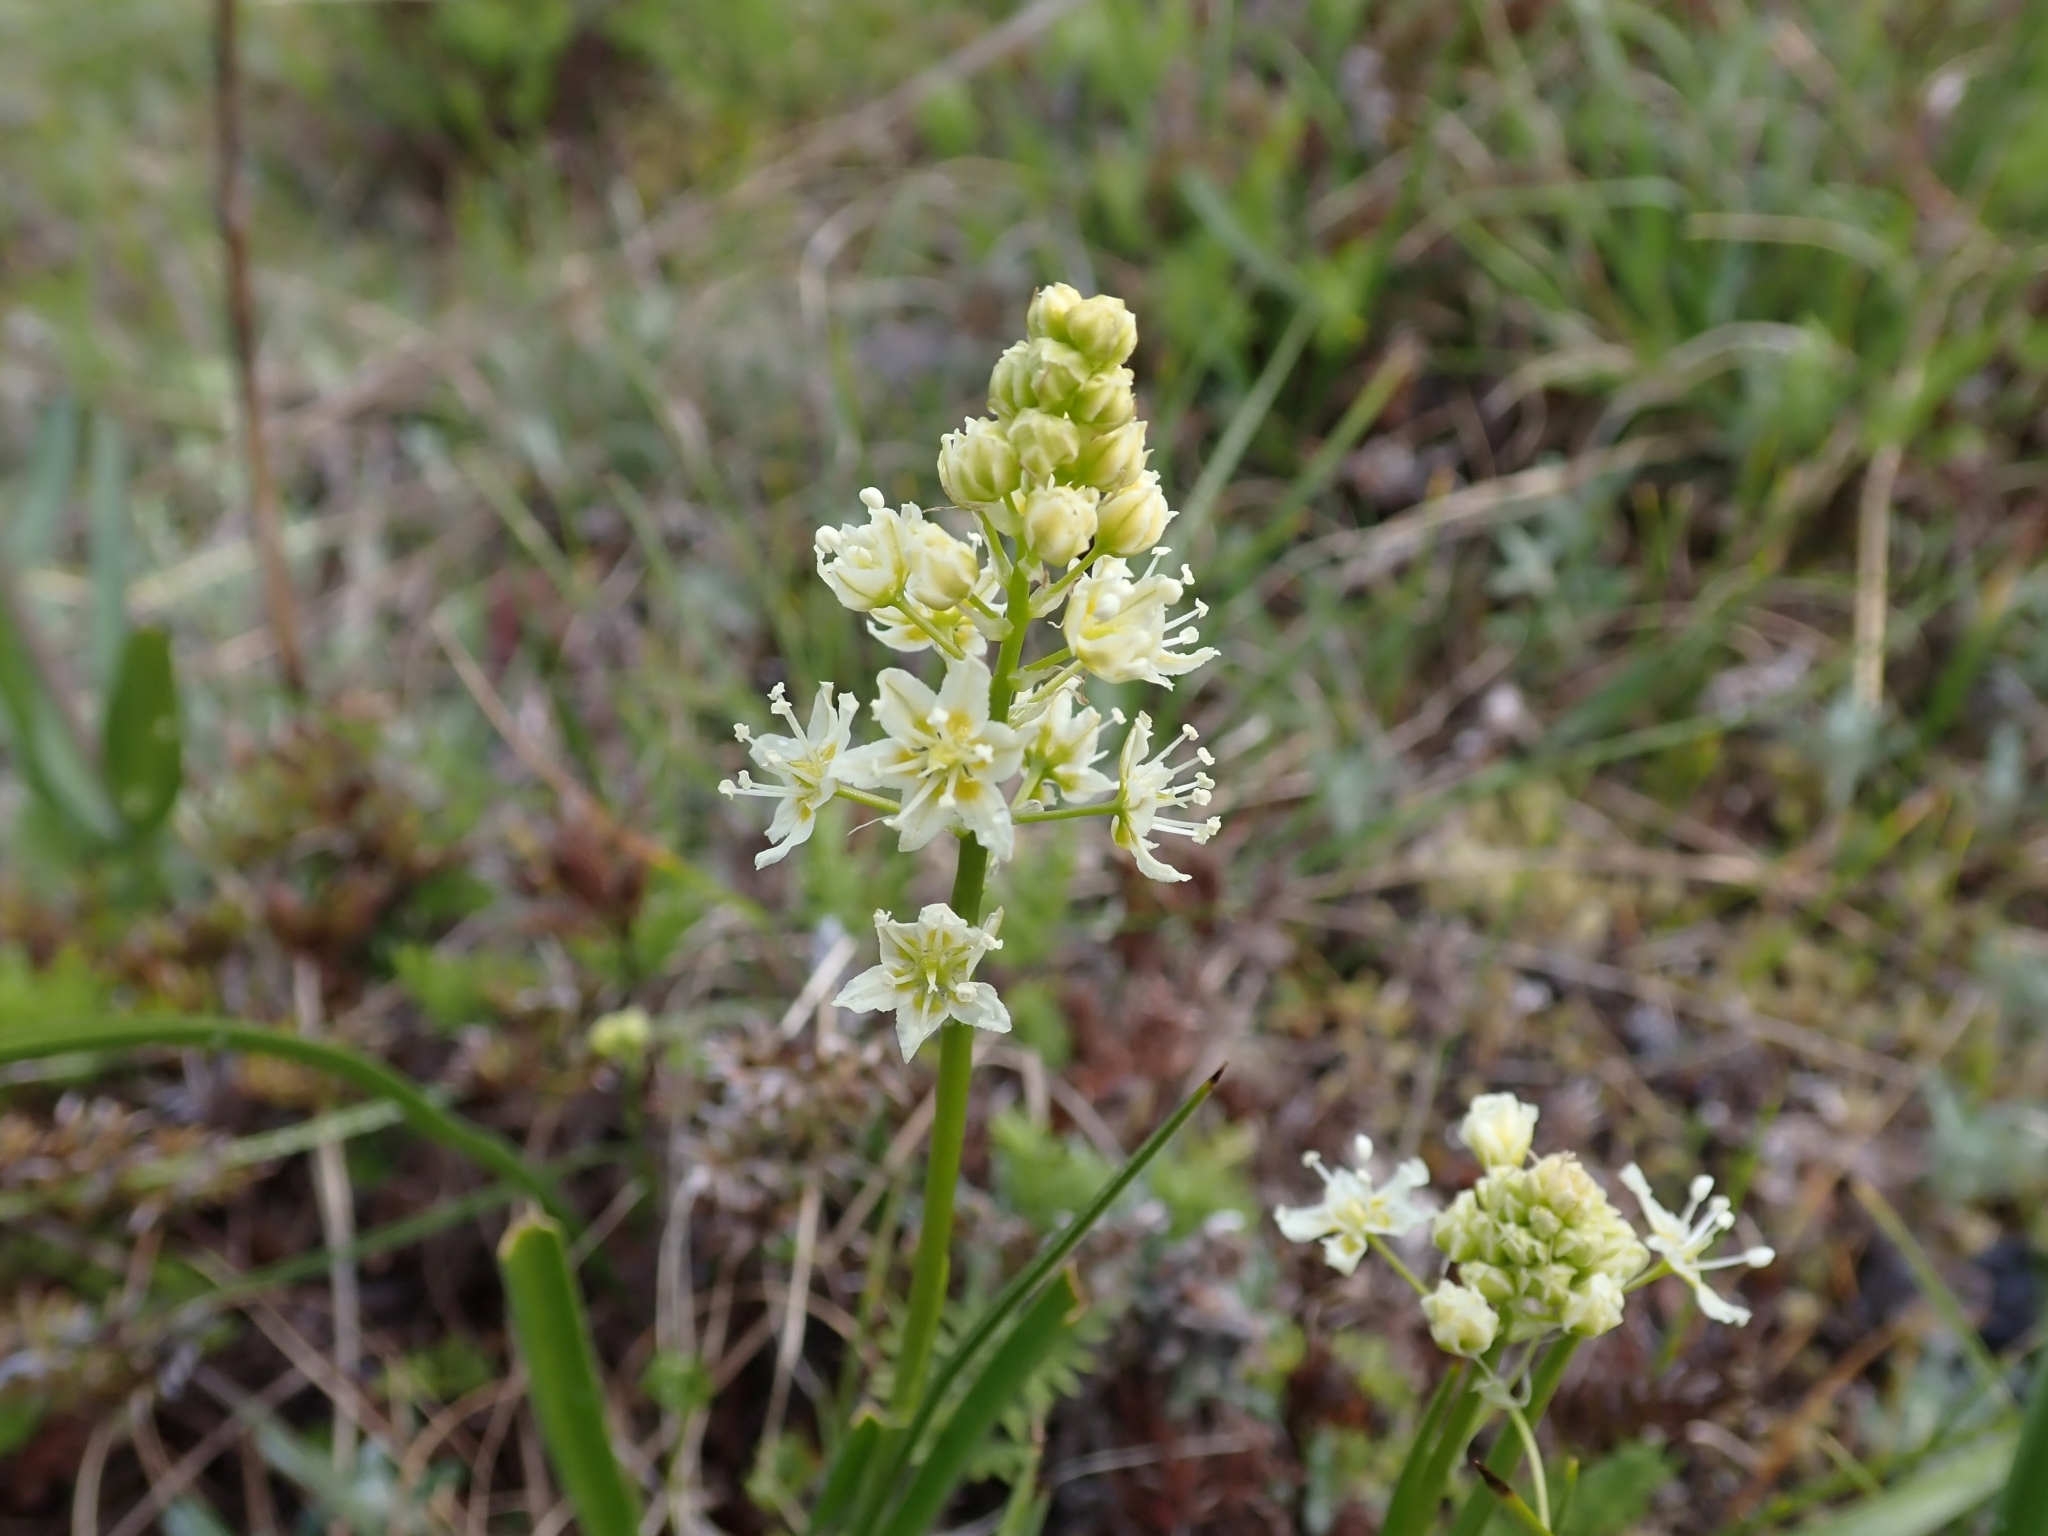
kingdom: Plantae
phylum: Tracheophyta
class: Liliopsida
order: Liliales
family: Melanthiaceae
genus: Toxicoscordion
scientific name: Toxicoscordion venenosum
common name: Meadow death camas
